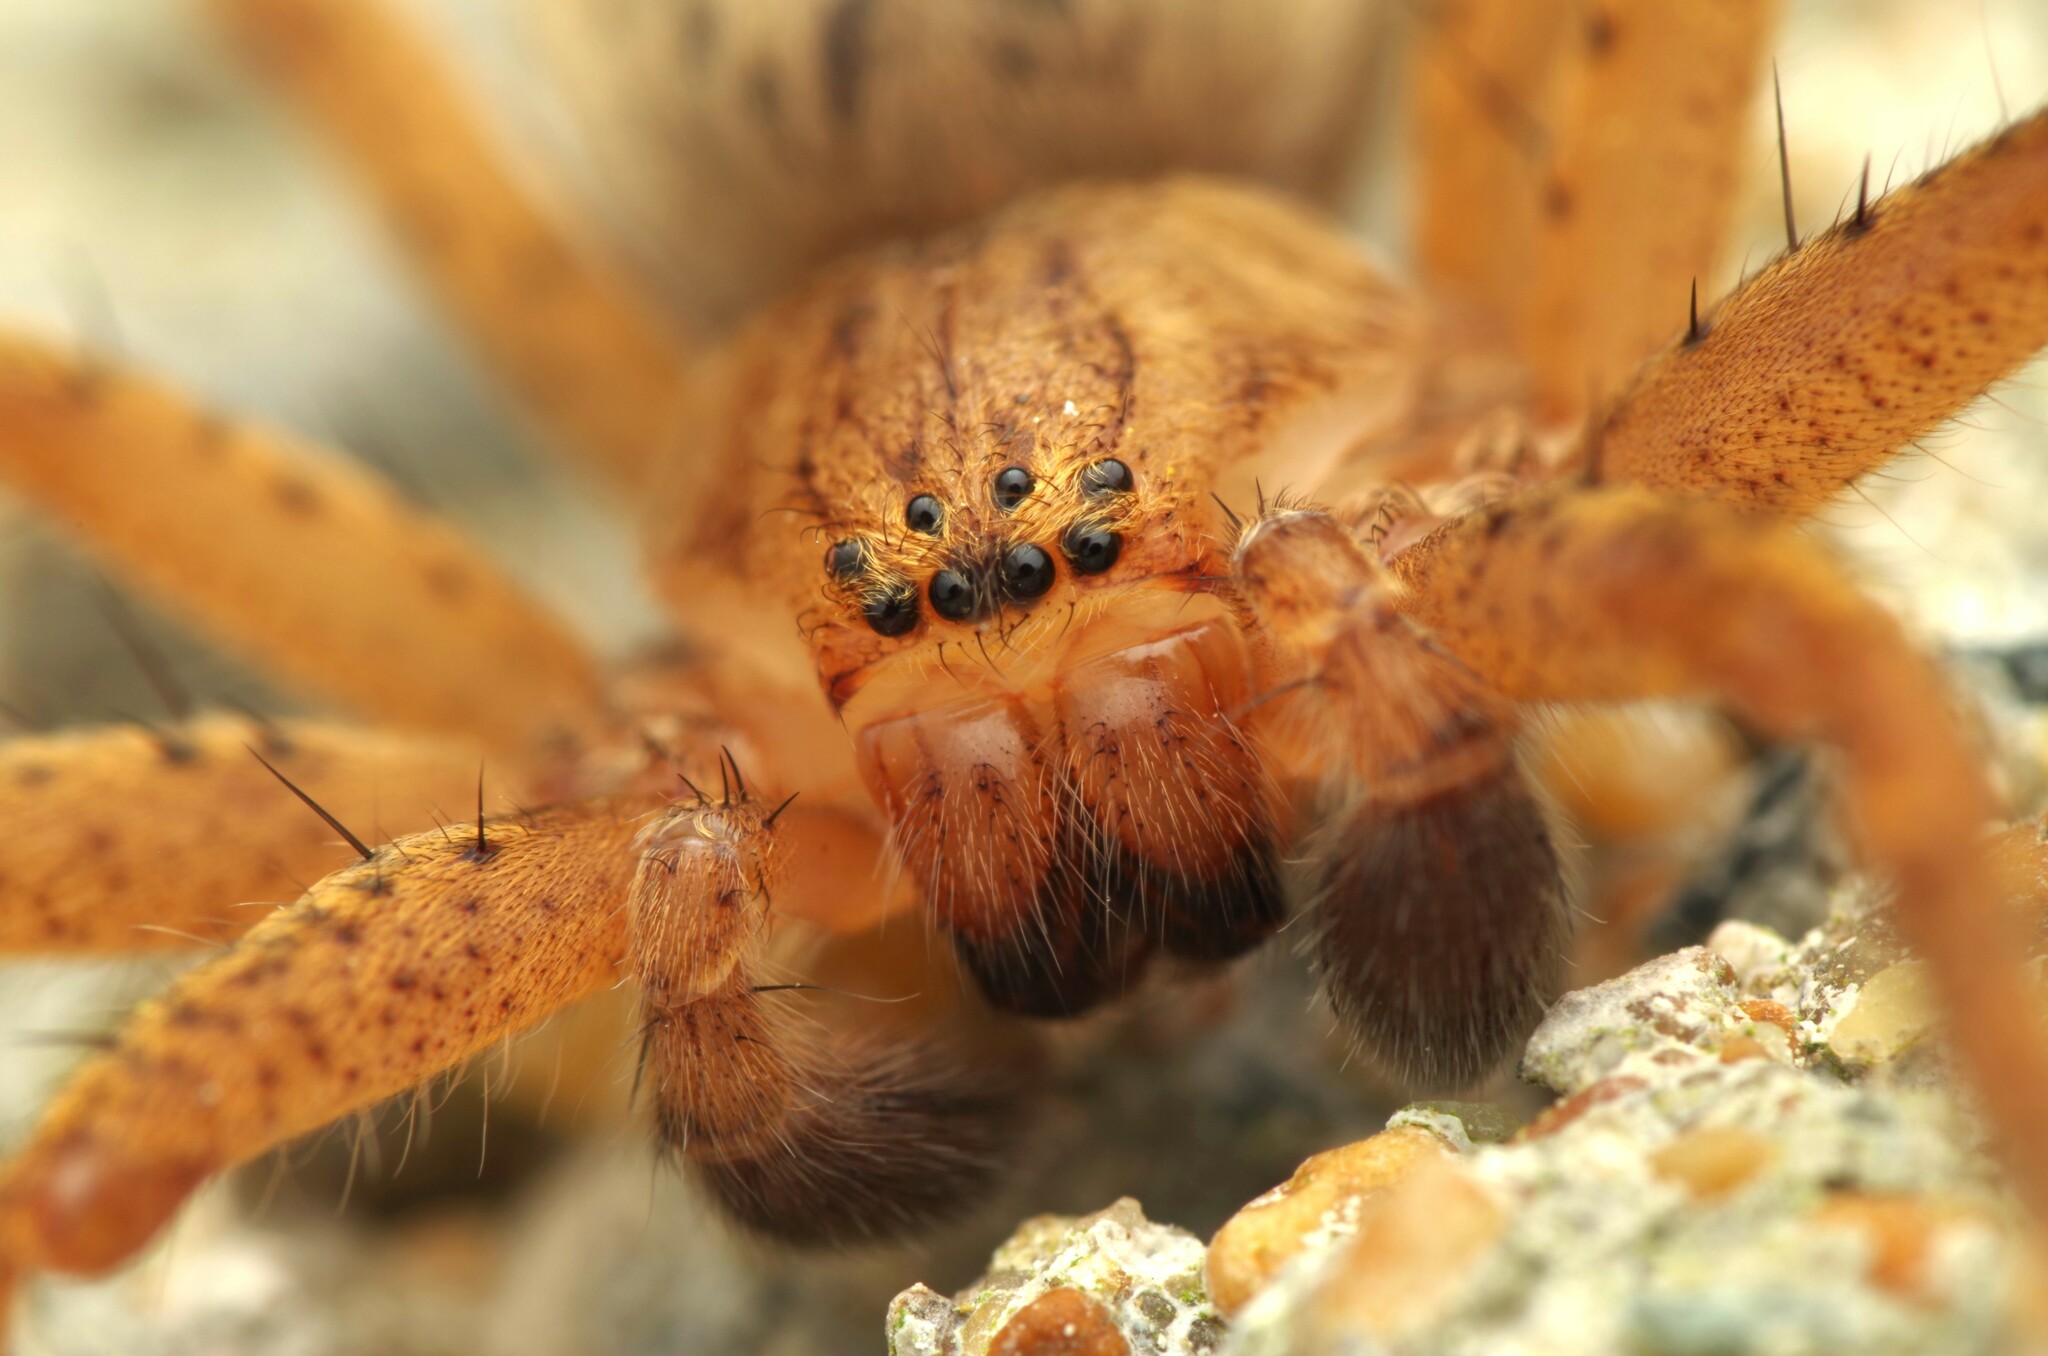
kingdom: Animalia
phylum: Arthropoda
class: Arachnida
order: Araneae
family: Sparassidae
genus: Olios
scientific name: Olios argelasius
